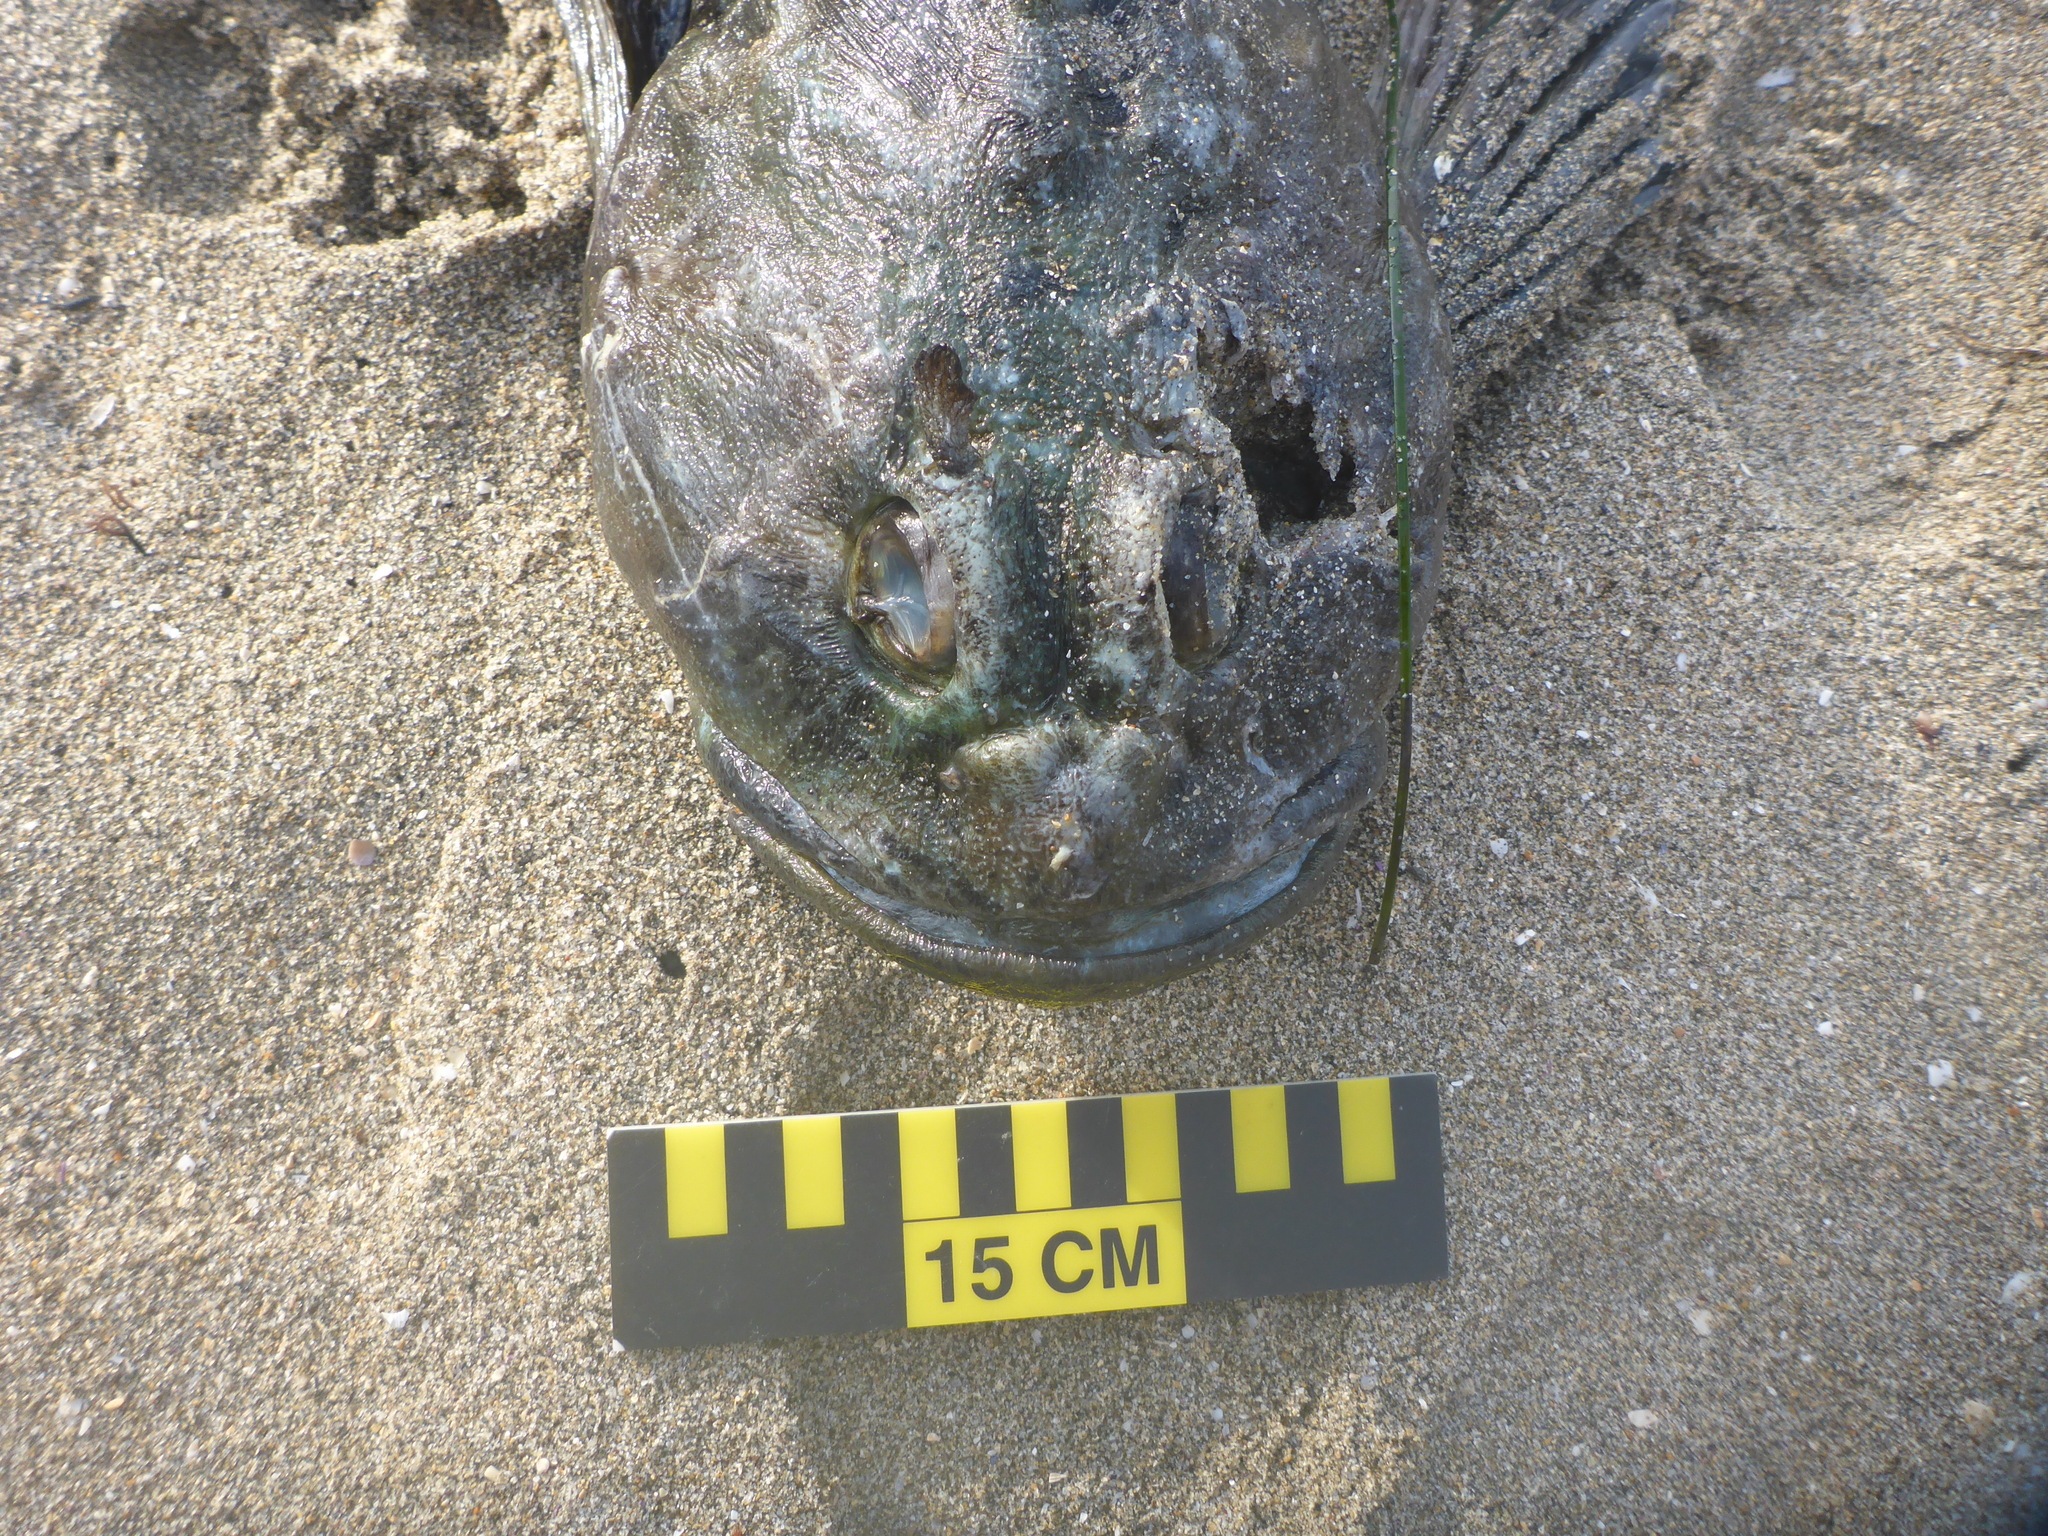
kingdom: Animalia
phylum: Chordata
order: Scorpaeniformes
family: Cottidae
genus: Scorpaenichthys
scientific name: Scorpaenichthys marmoratus
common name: Cabezon
